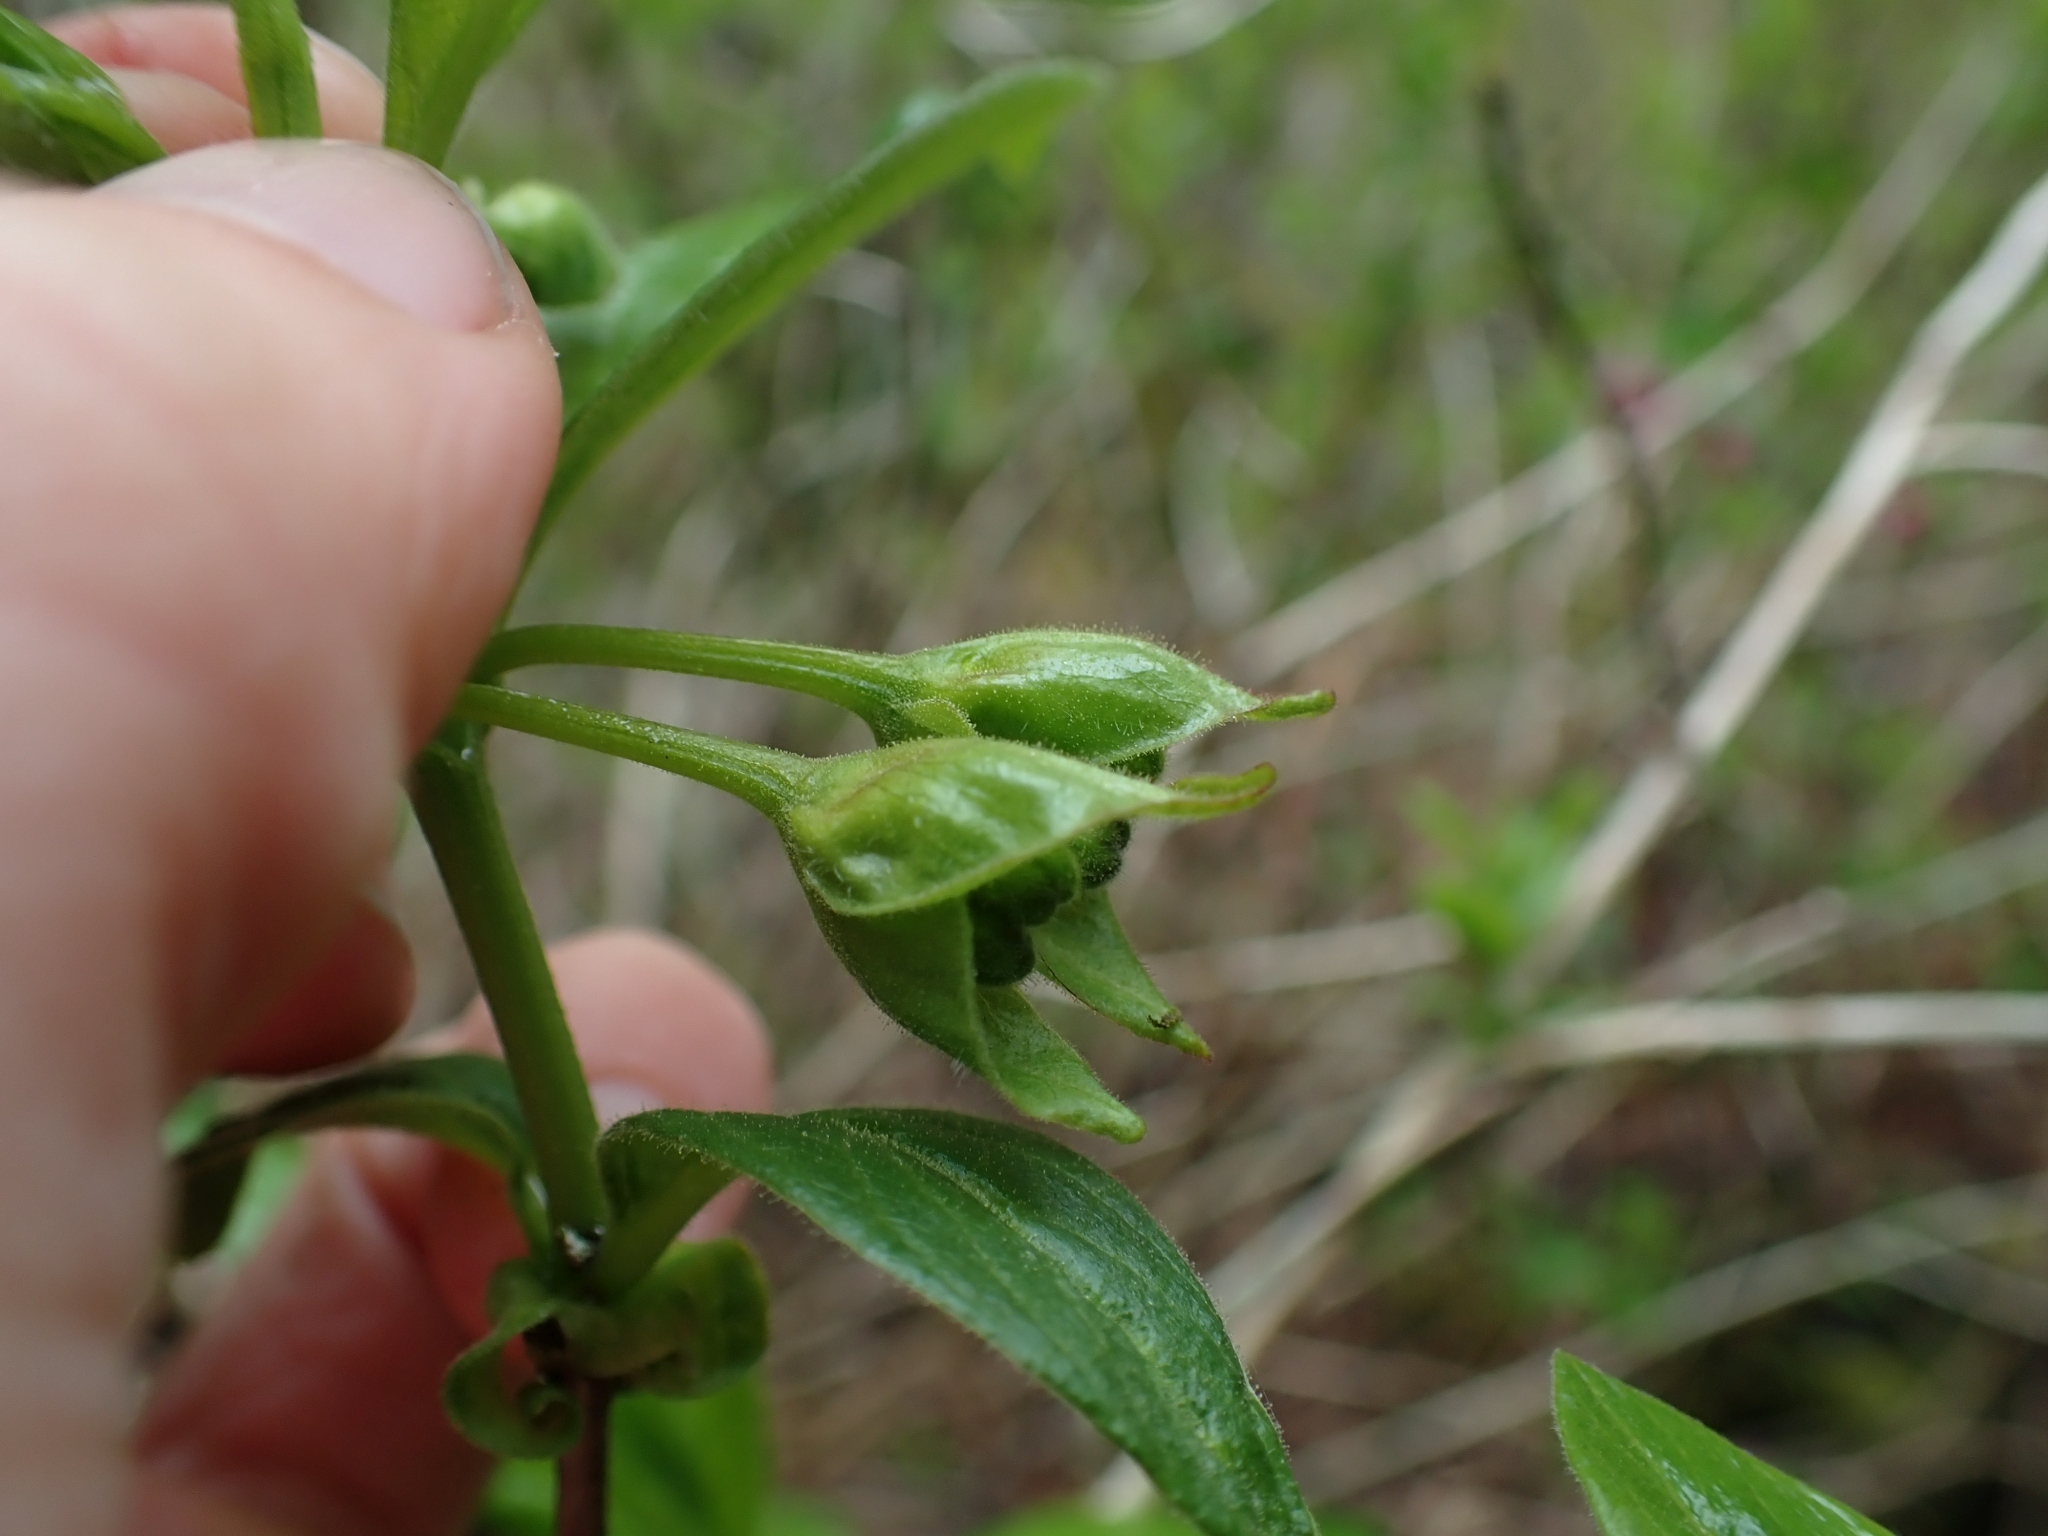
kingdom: Plantae
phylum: Tracheophyta
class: Magnoliopsida
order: Dipsacales
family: Caprifoliaceae
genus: Lonicera
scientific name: Lonicera involucrata
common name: Californian honeysuckle
